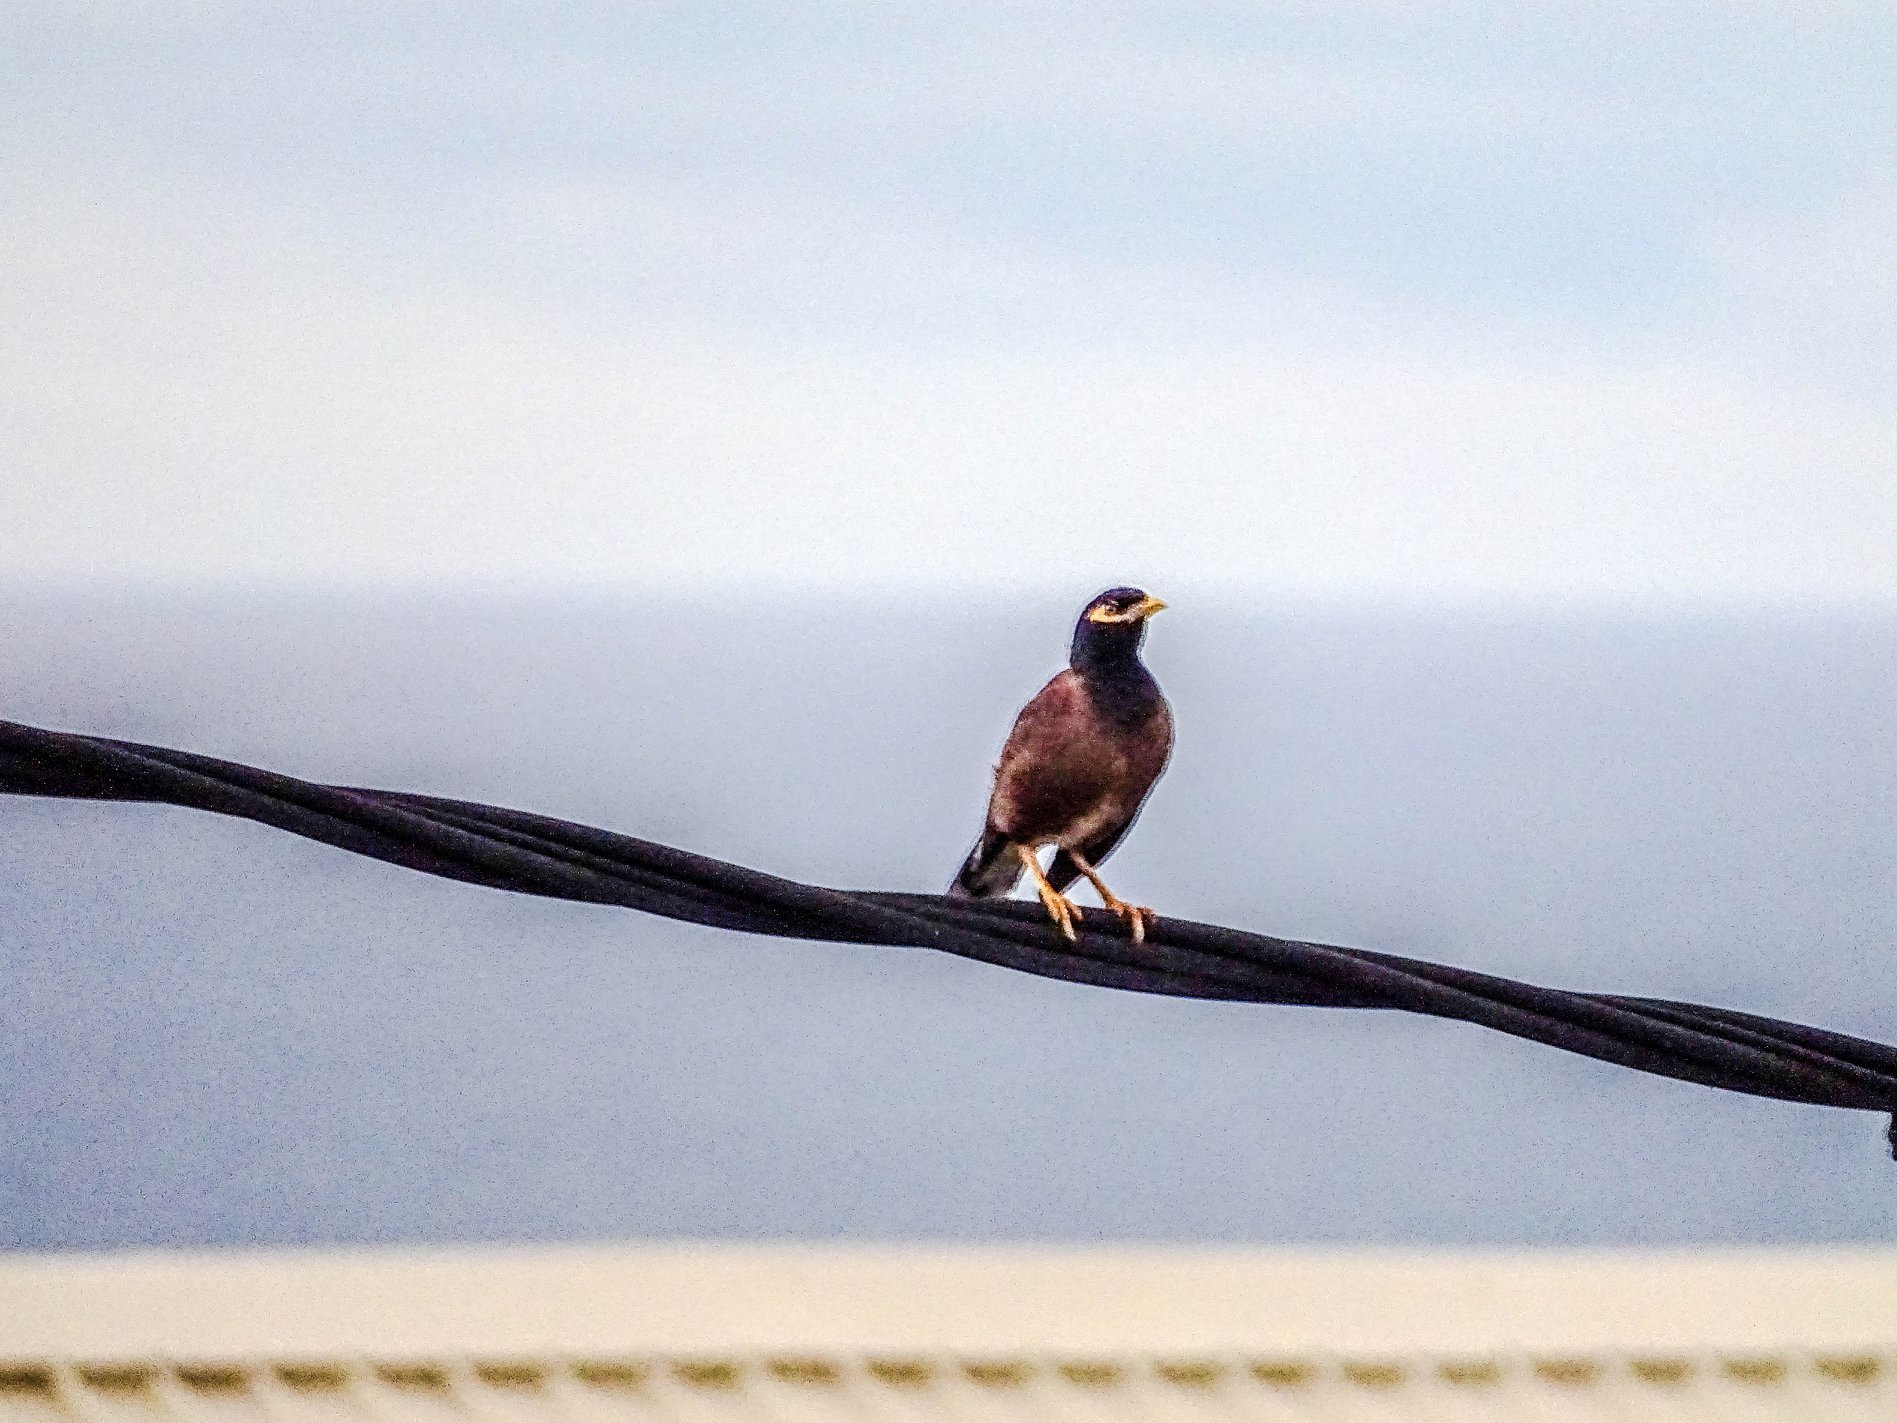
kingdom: Animalia
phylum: Chordata
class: Aves
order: Passeriformes
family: Sturnidae
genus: Acridotheres
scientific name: Acridotheres tristis
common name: Common myna
